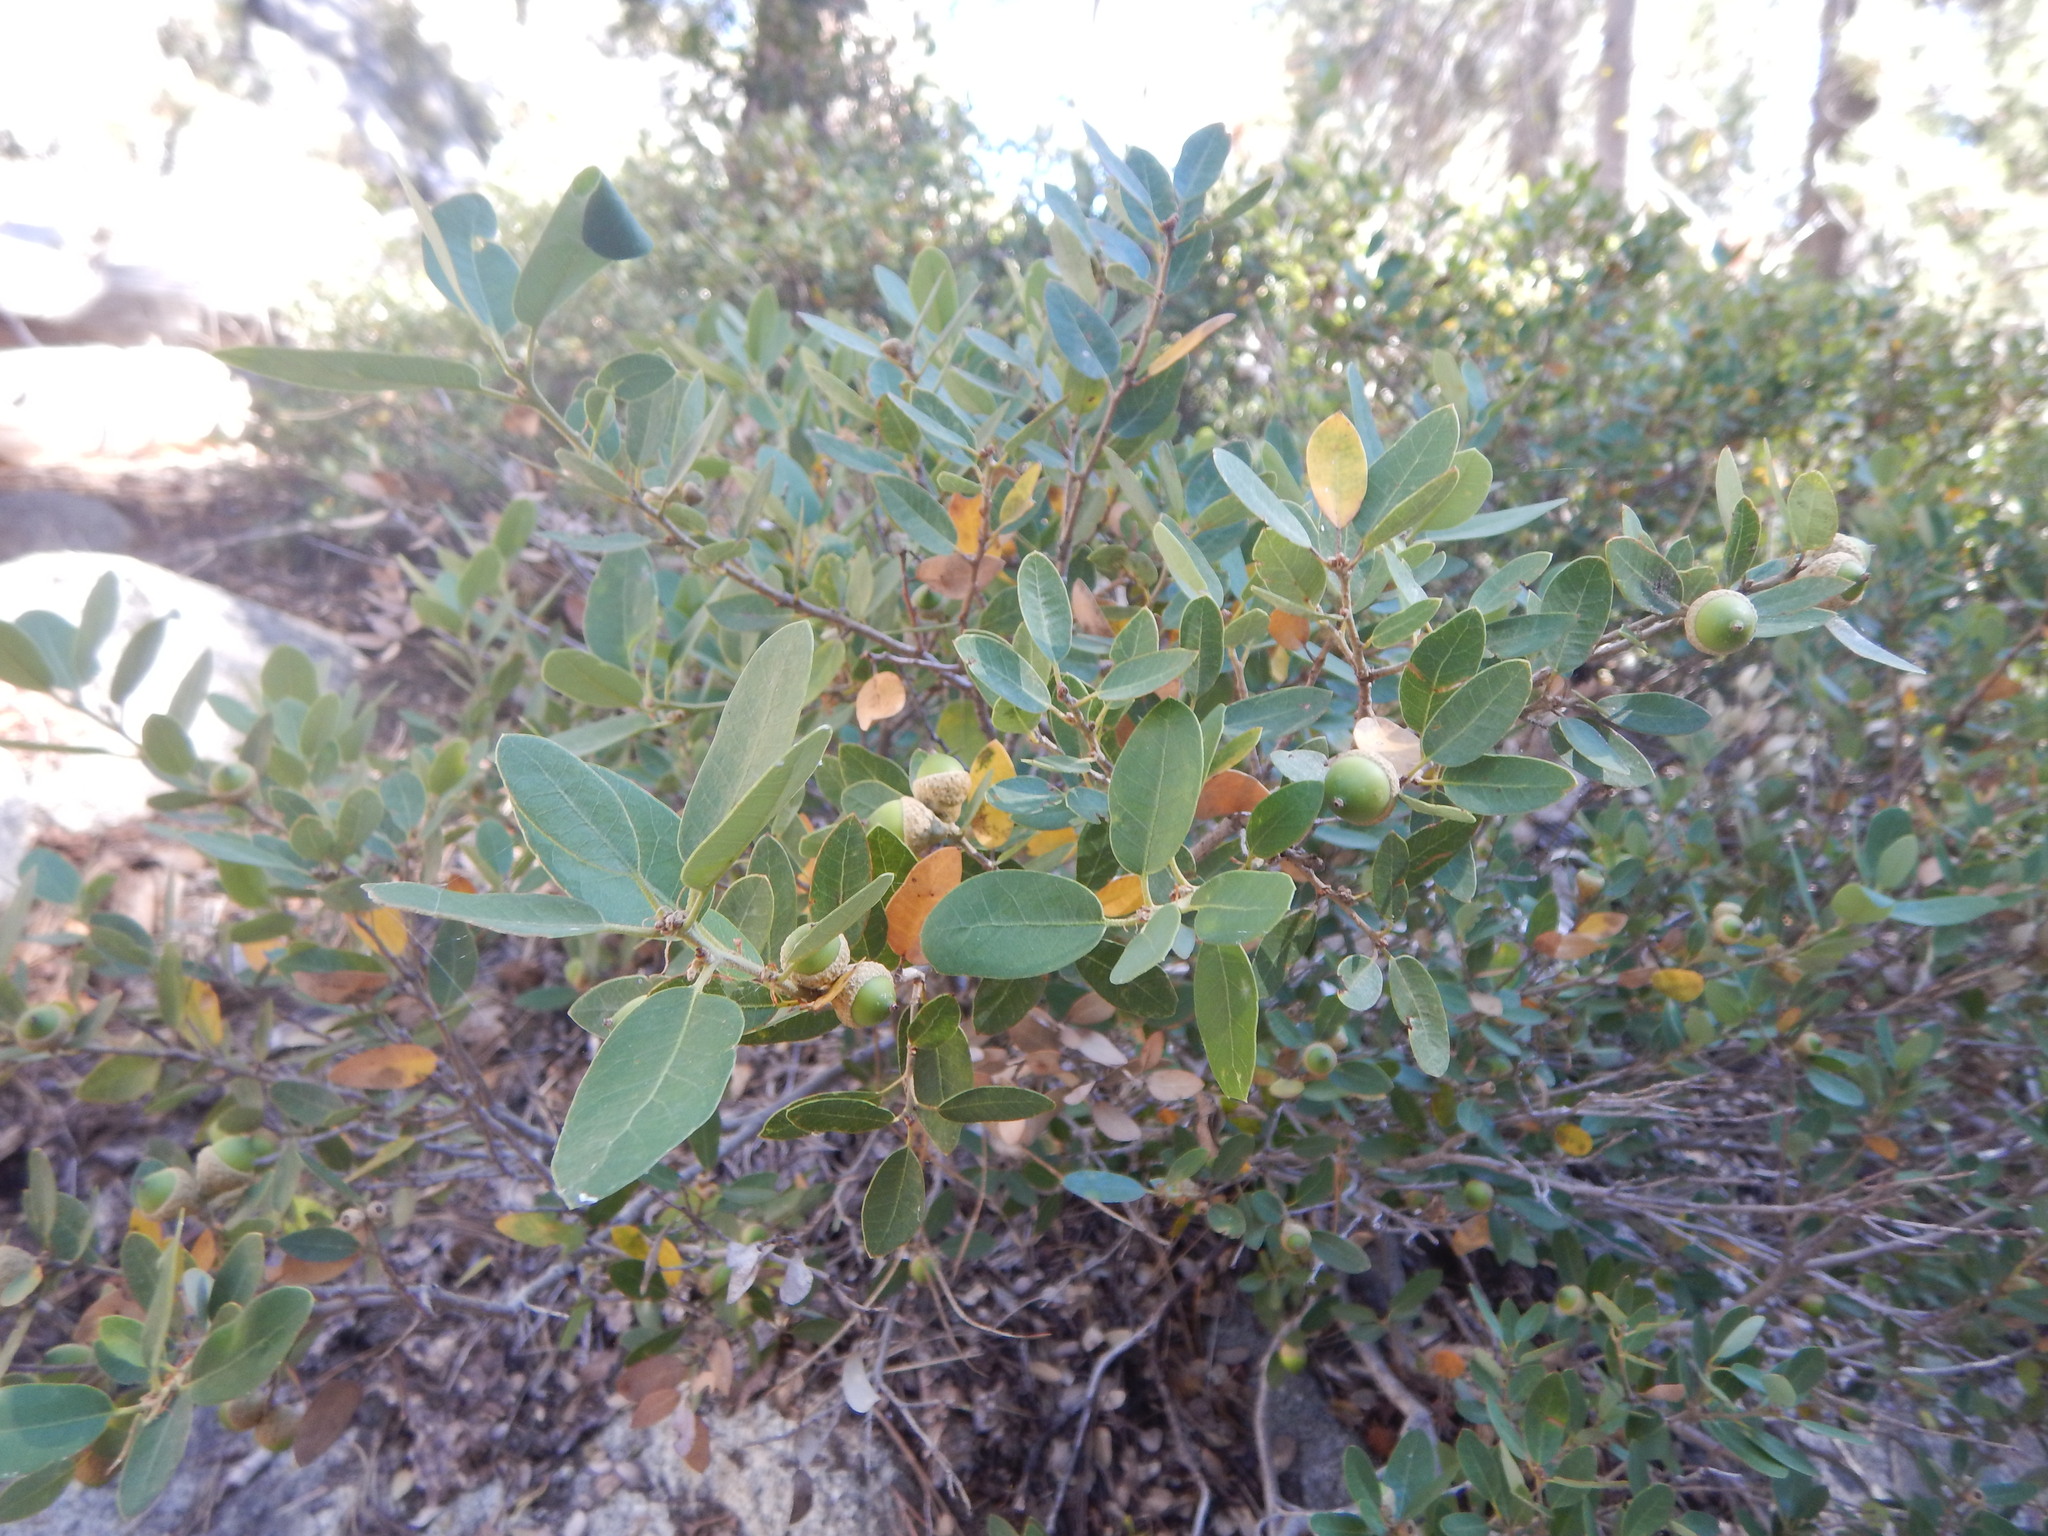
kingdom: Plantae
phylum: Tracheophyta
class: Magnoliopsida
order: Fagales
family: Fagaceae
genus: Quercus
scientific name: Quercus vacciniifolia
